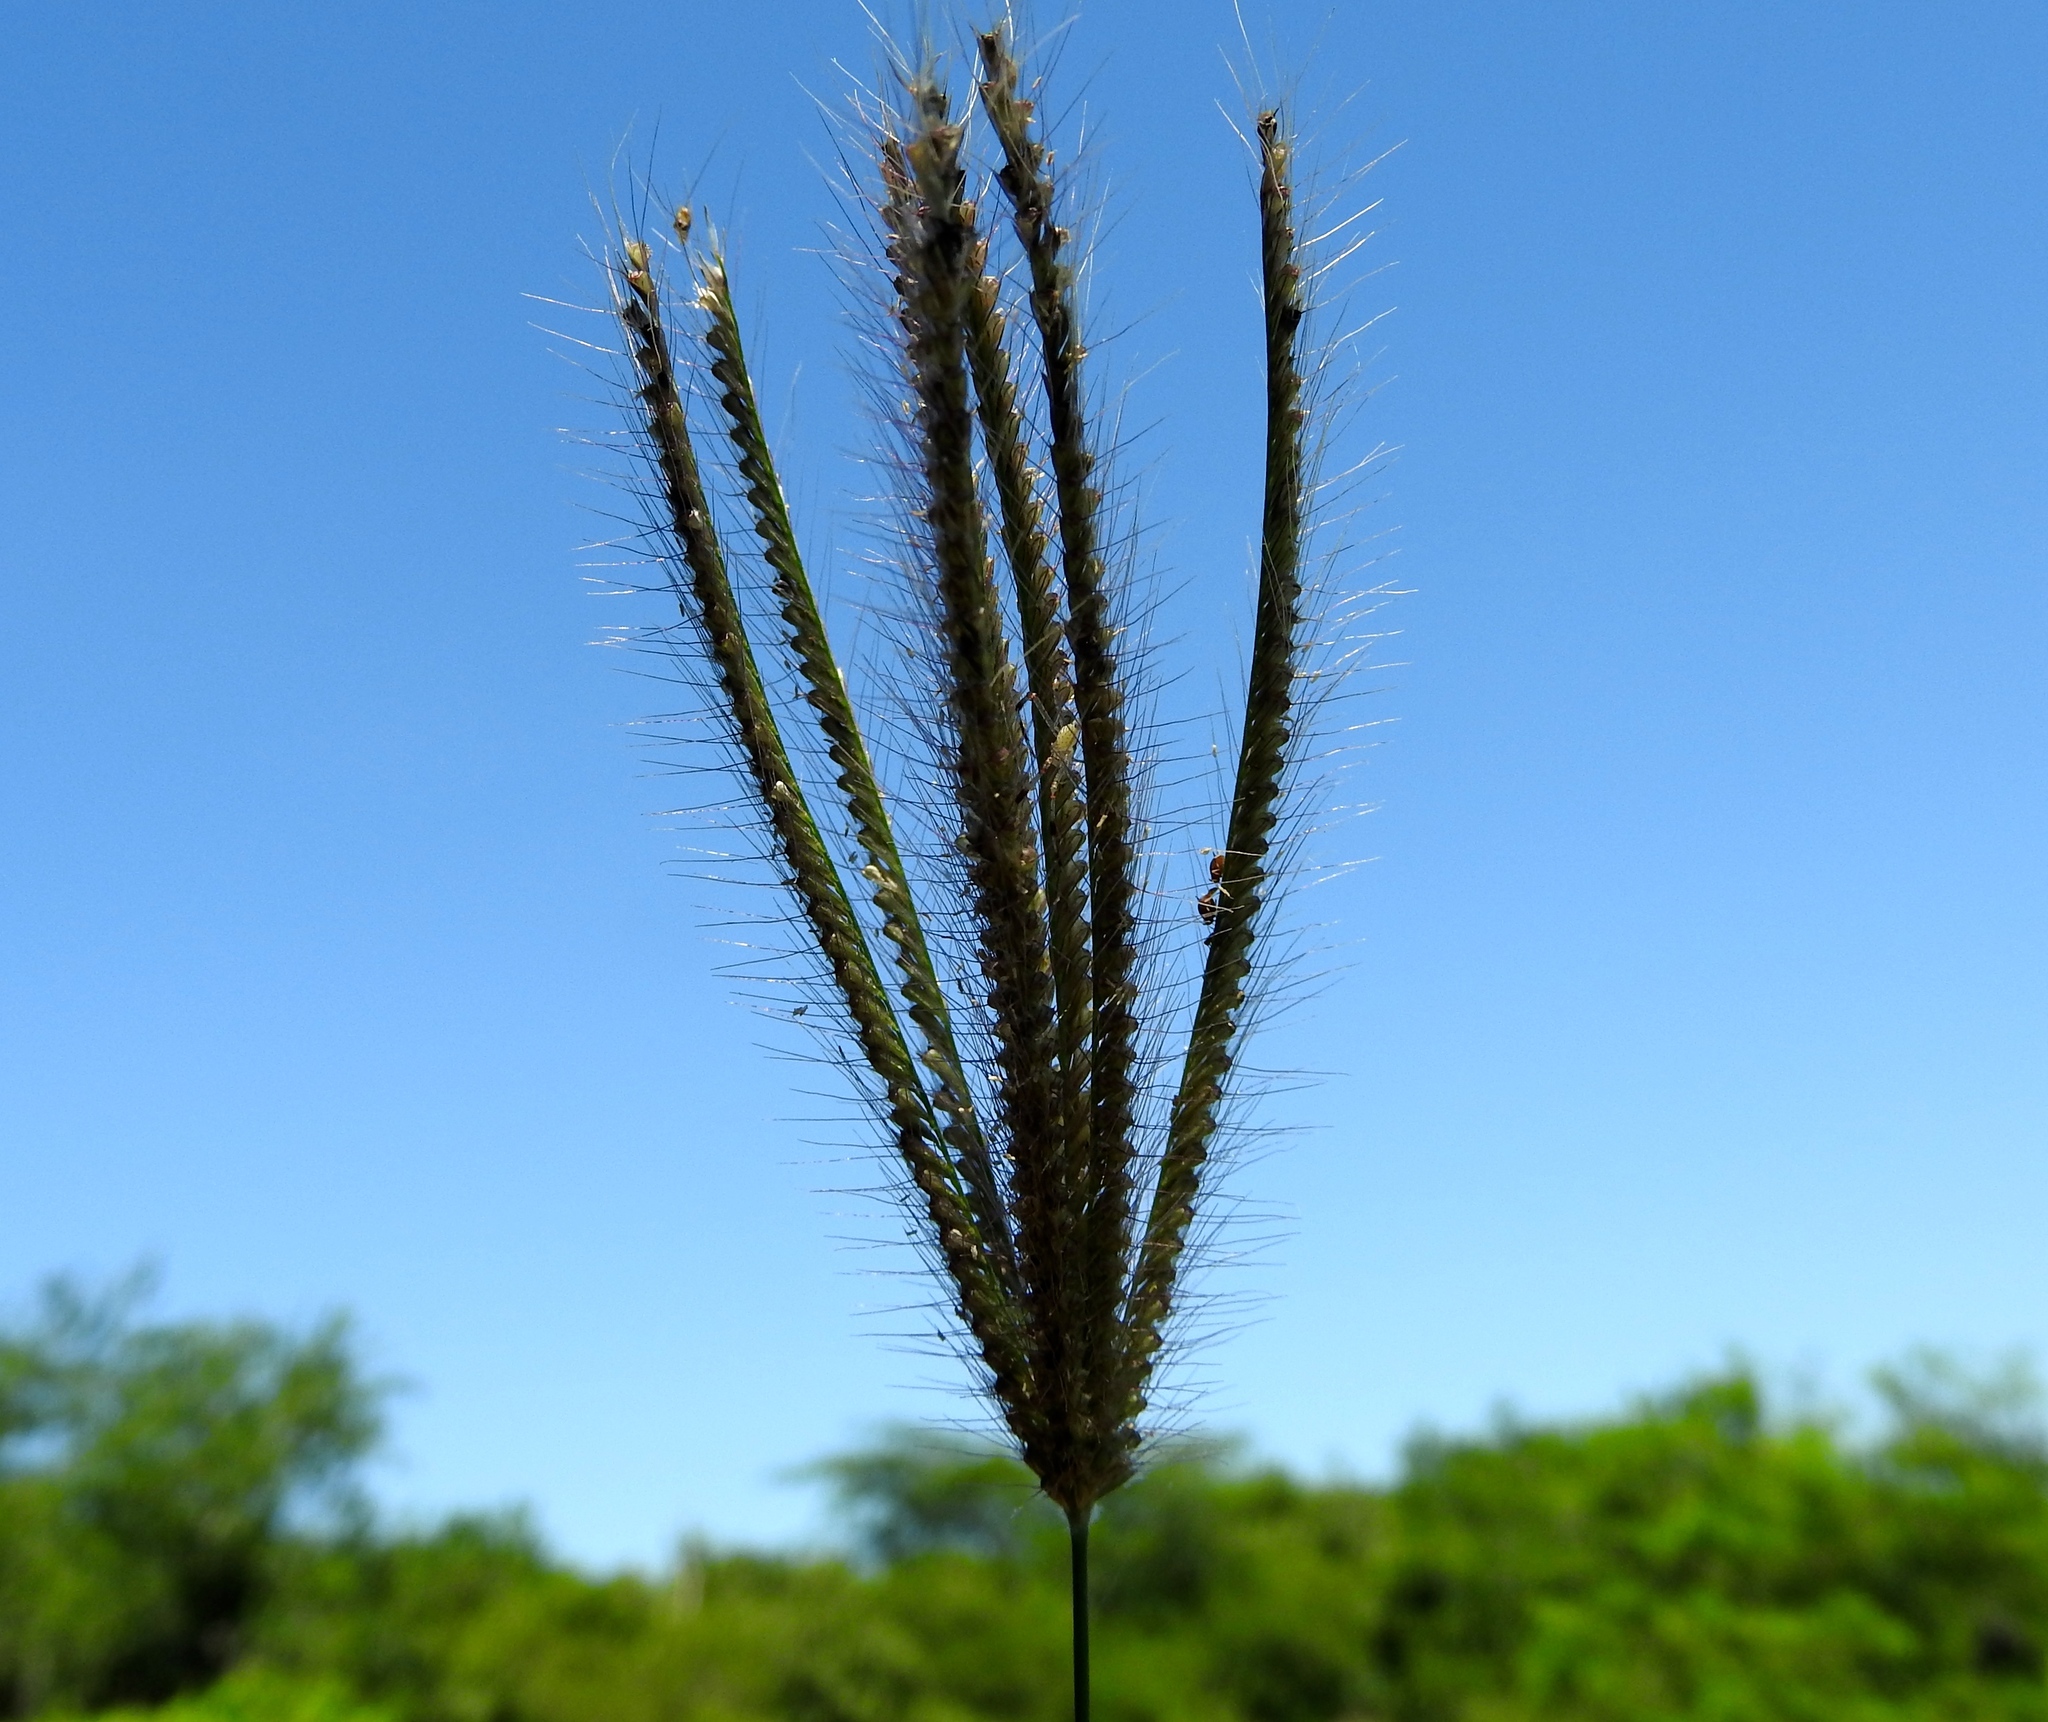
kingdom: Plantae
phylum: Tracheophyta
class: Liliopsida
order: Poales
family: Poaceae
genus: Chloris
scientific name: Chloris virgata
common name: Feathery rhodes-grass
